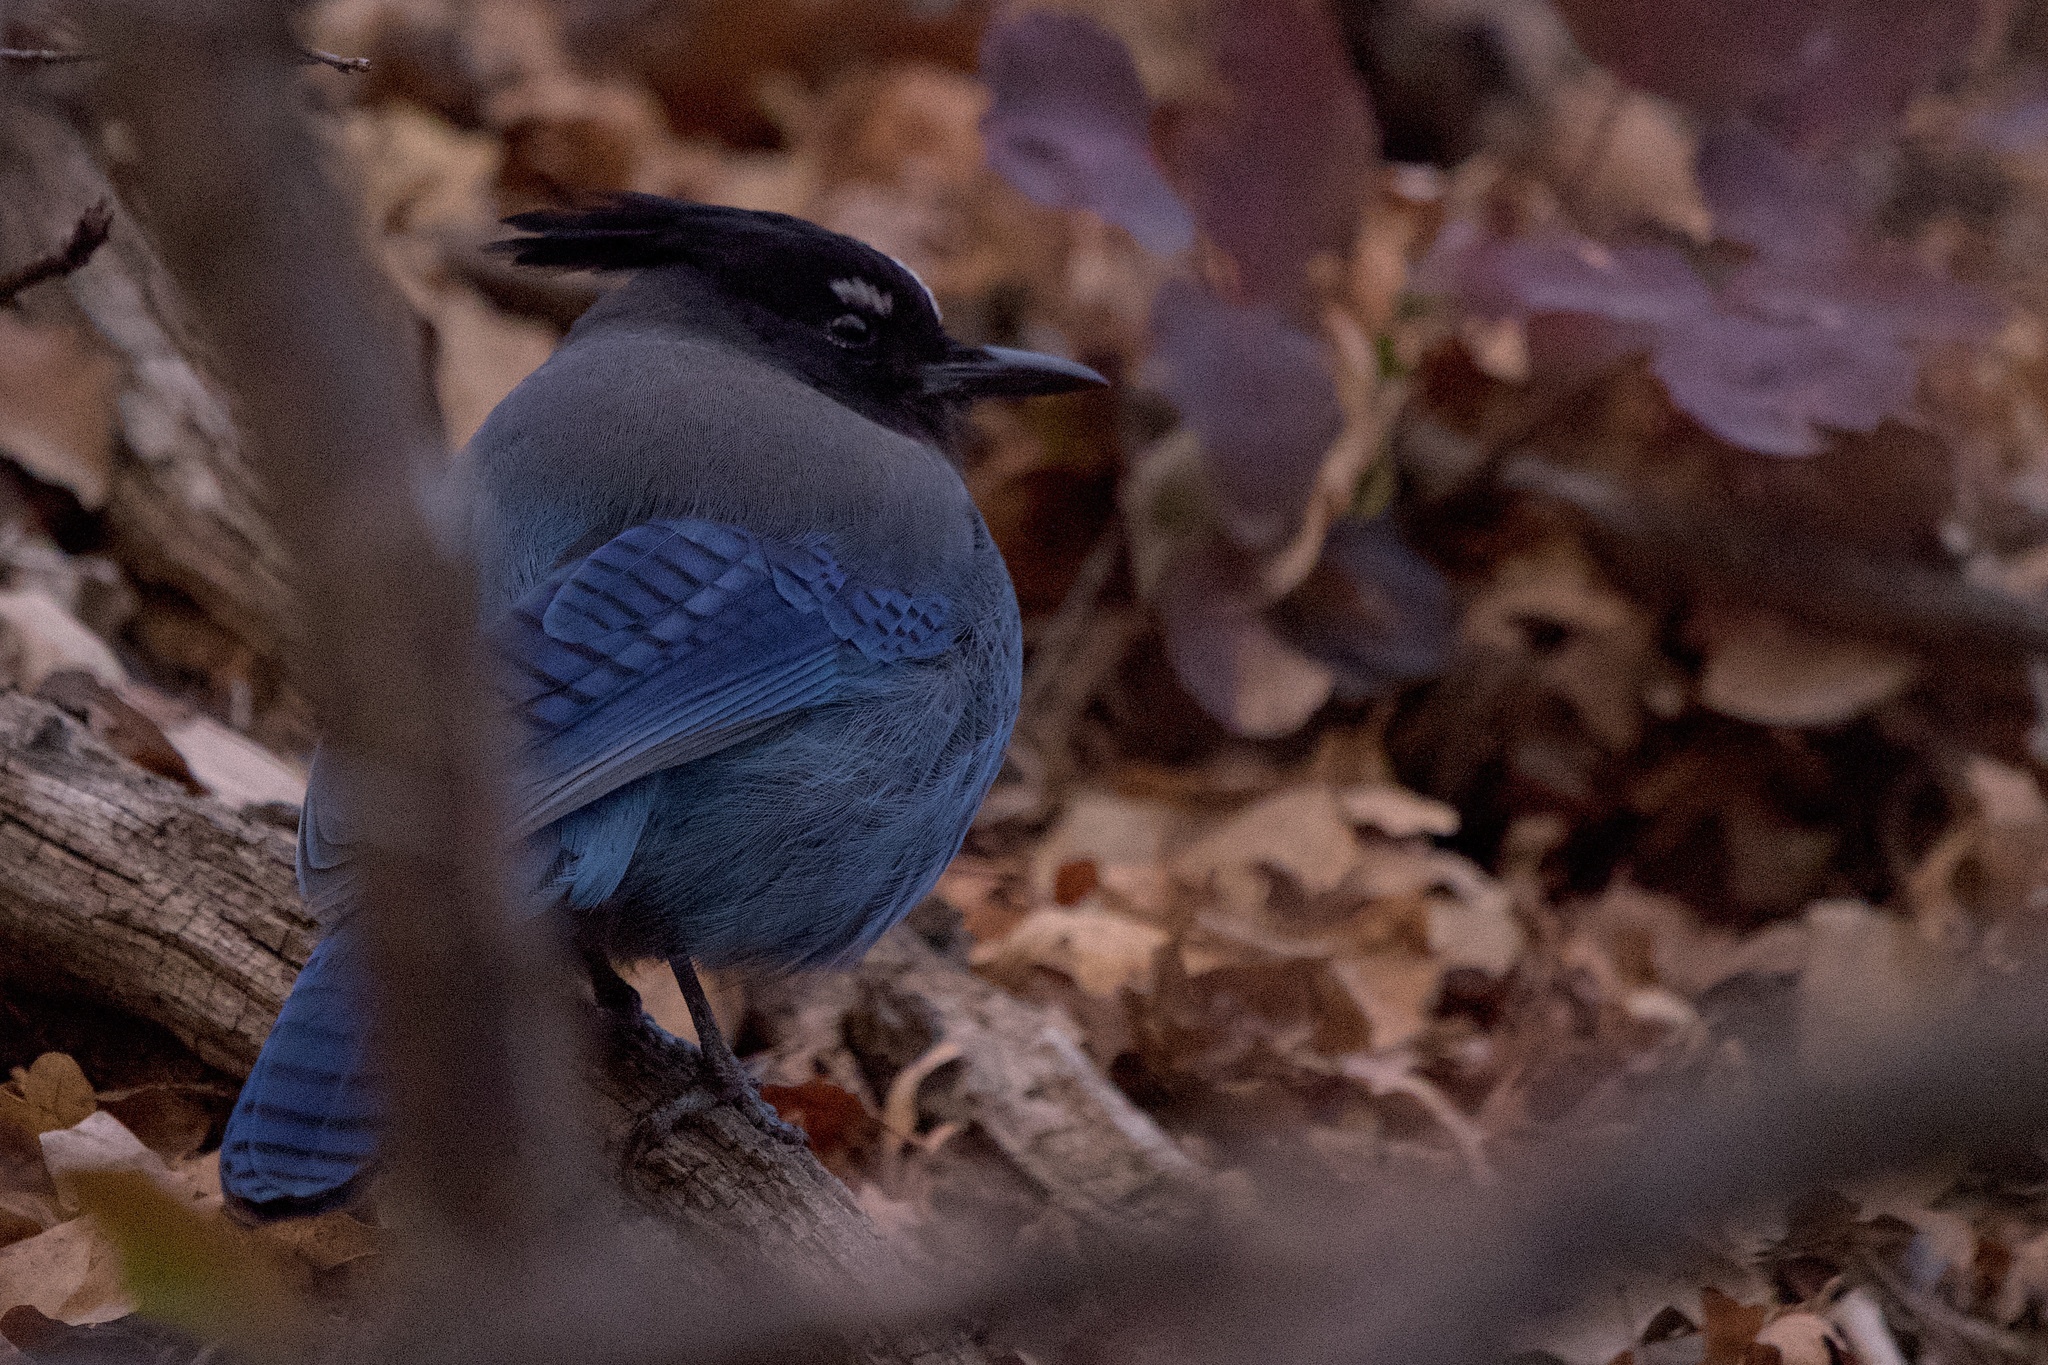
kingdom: Animalia
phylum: Chordata
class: Aves
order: Passeriformes
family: Corvidae
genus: Cyanocitta
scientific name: Cyanocitta stelleri
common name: Steller's jay
